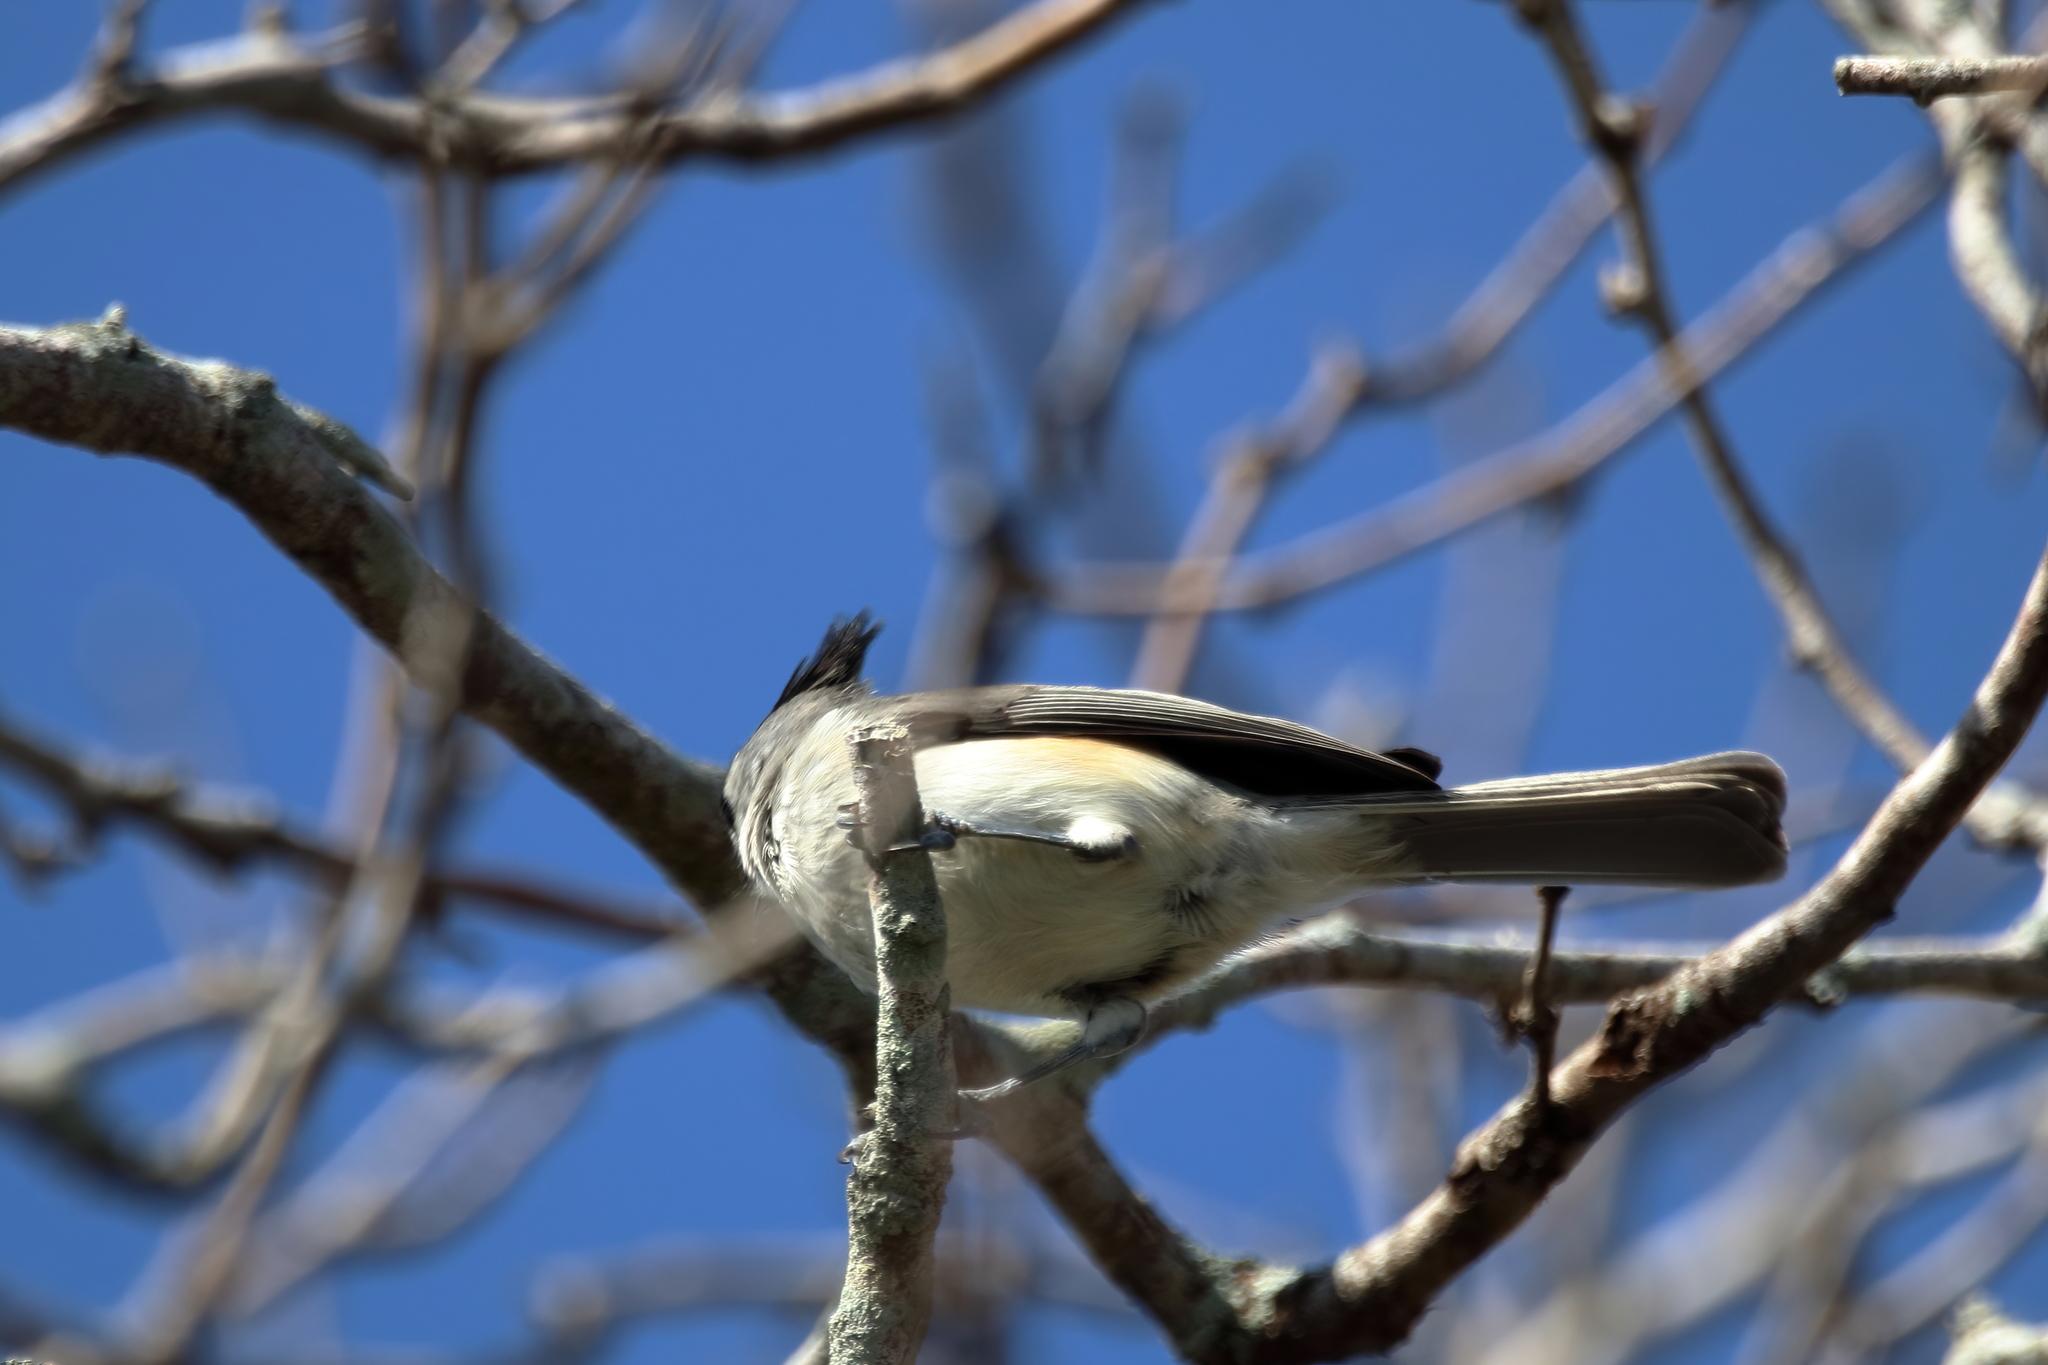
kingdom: Animalia
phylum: Chordata
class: Aves
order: Passeriformes
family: Paridae
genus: Baeolophus
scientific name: Baeolophus atricristatus
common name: Black-crested titmouse
